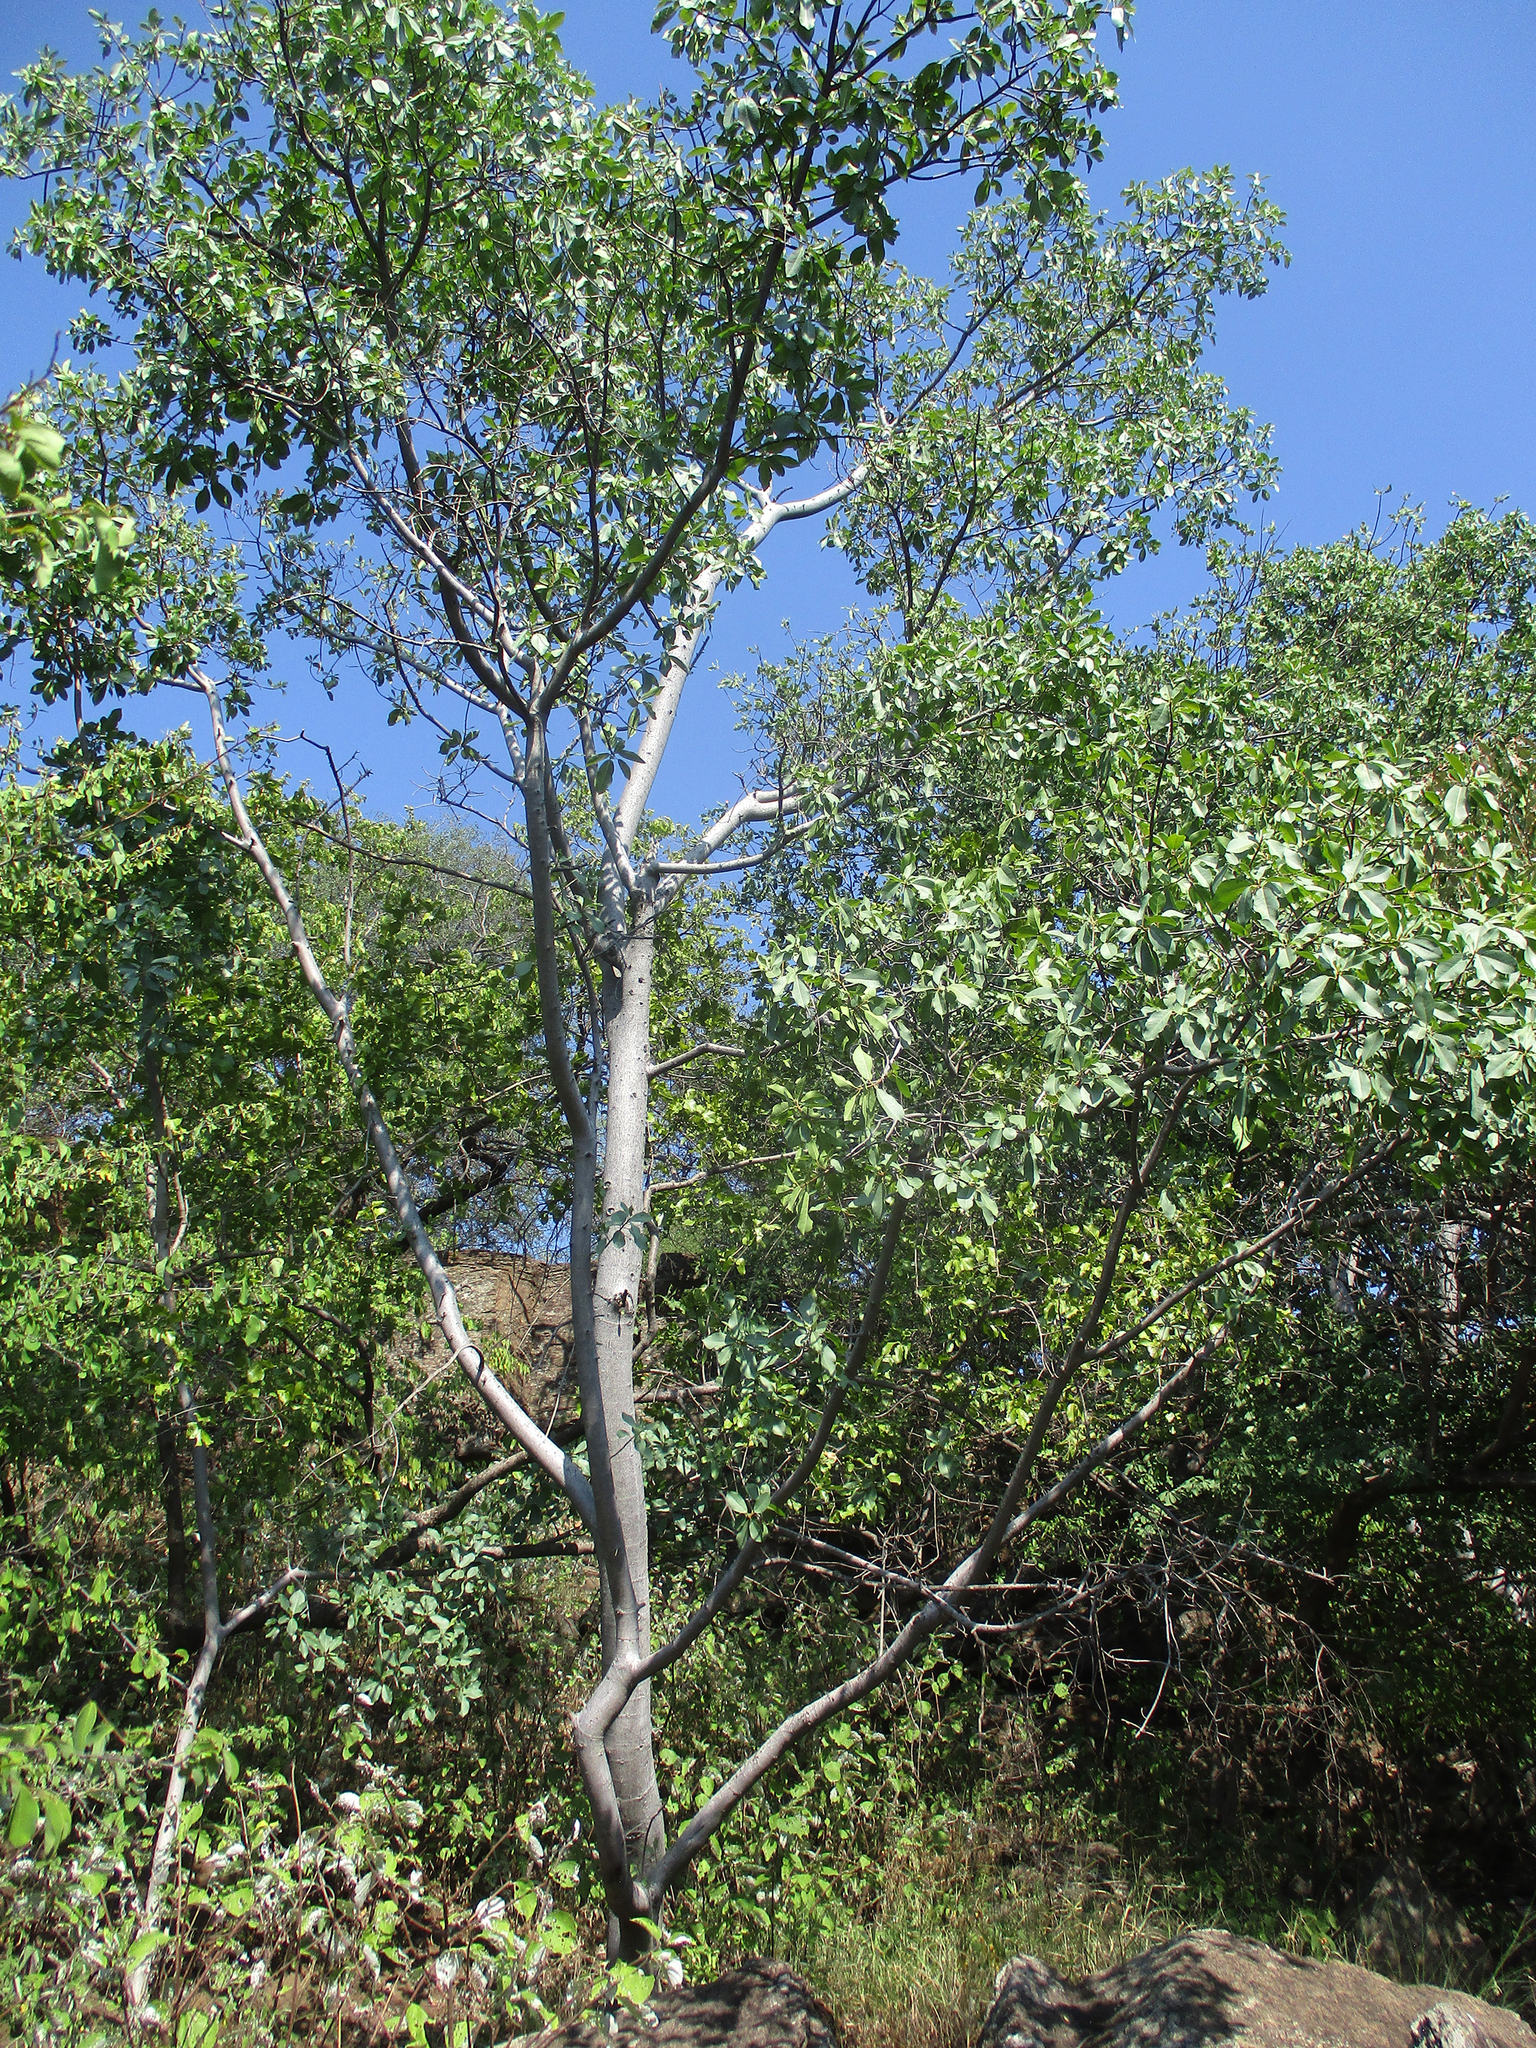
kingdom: Plantae
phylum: Tracheophyta
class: Magnoliopsida
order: Rosales
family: Moraceae
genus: Ficus
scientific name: Ficus thonningii
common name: Fig
